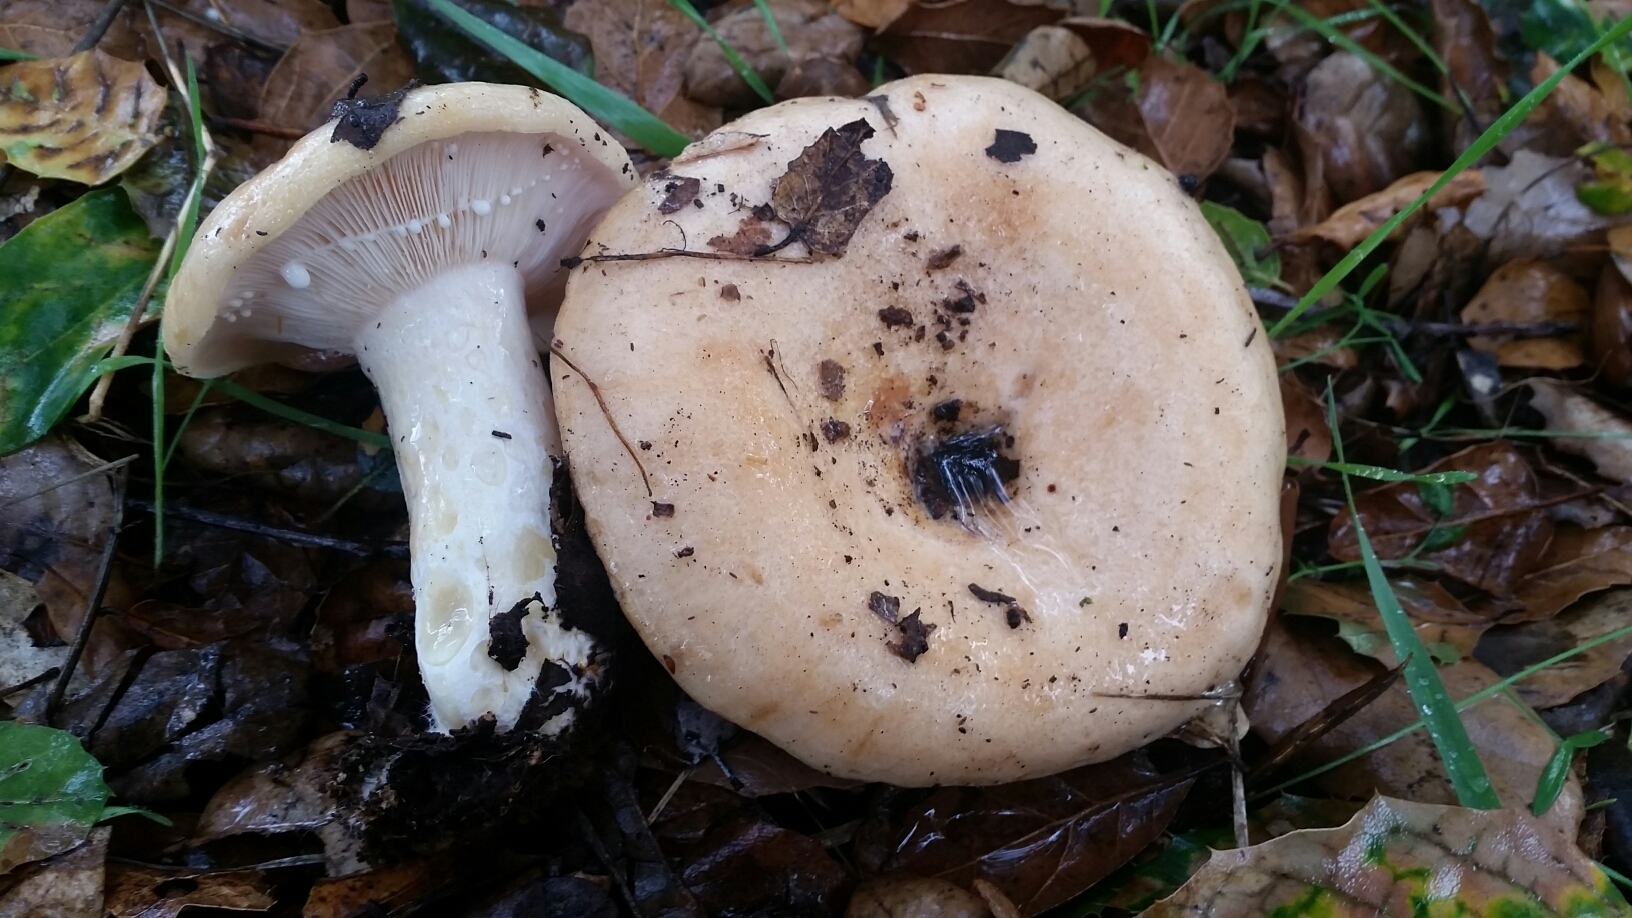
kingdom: Fungi
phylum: Basidiomycota
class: Agaricomycetes
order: Russulales
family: Russulaceae
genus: Lactarius
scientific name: Lactarius alnicola
